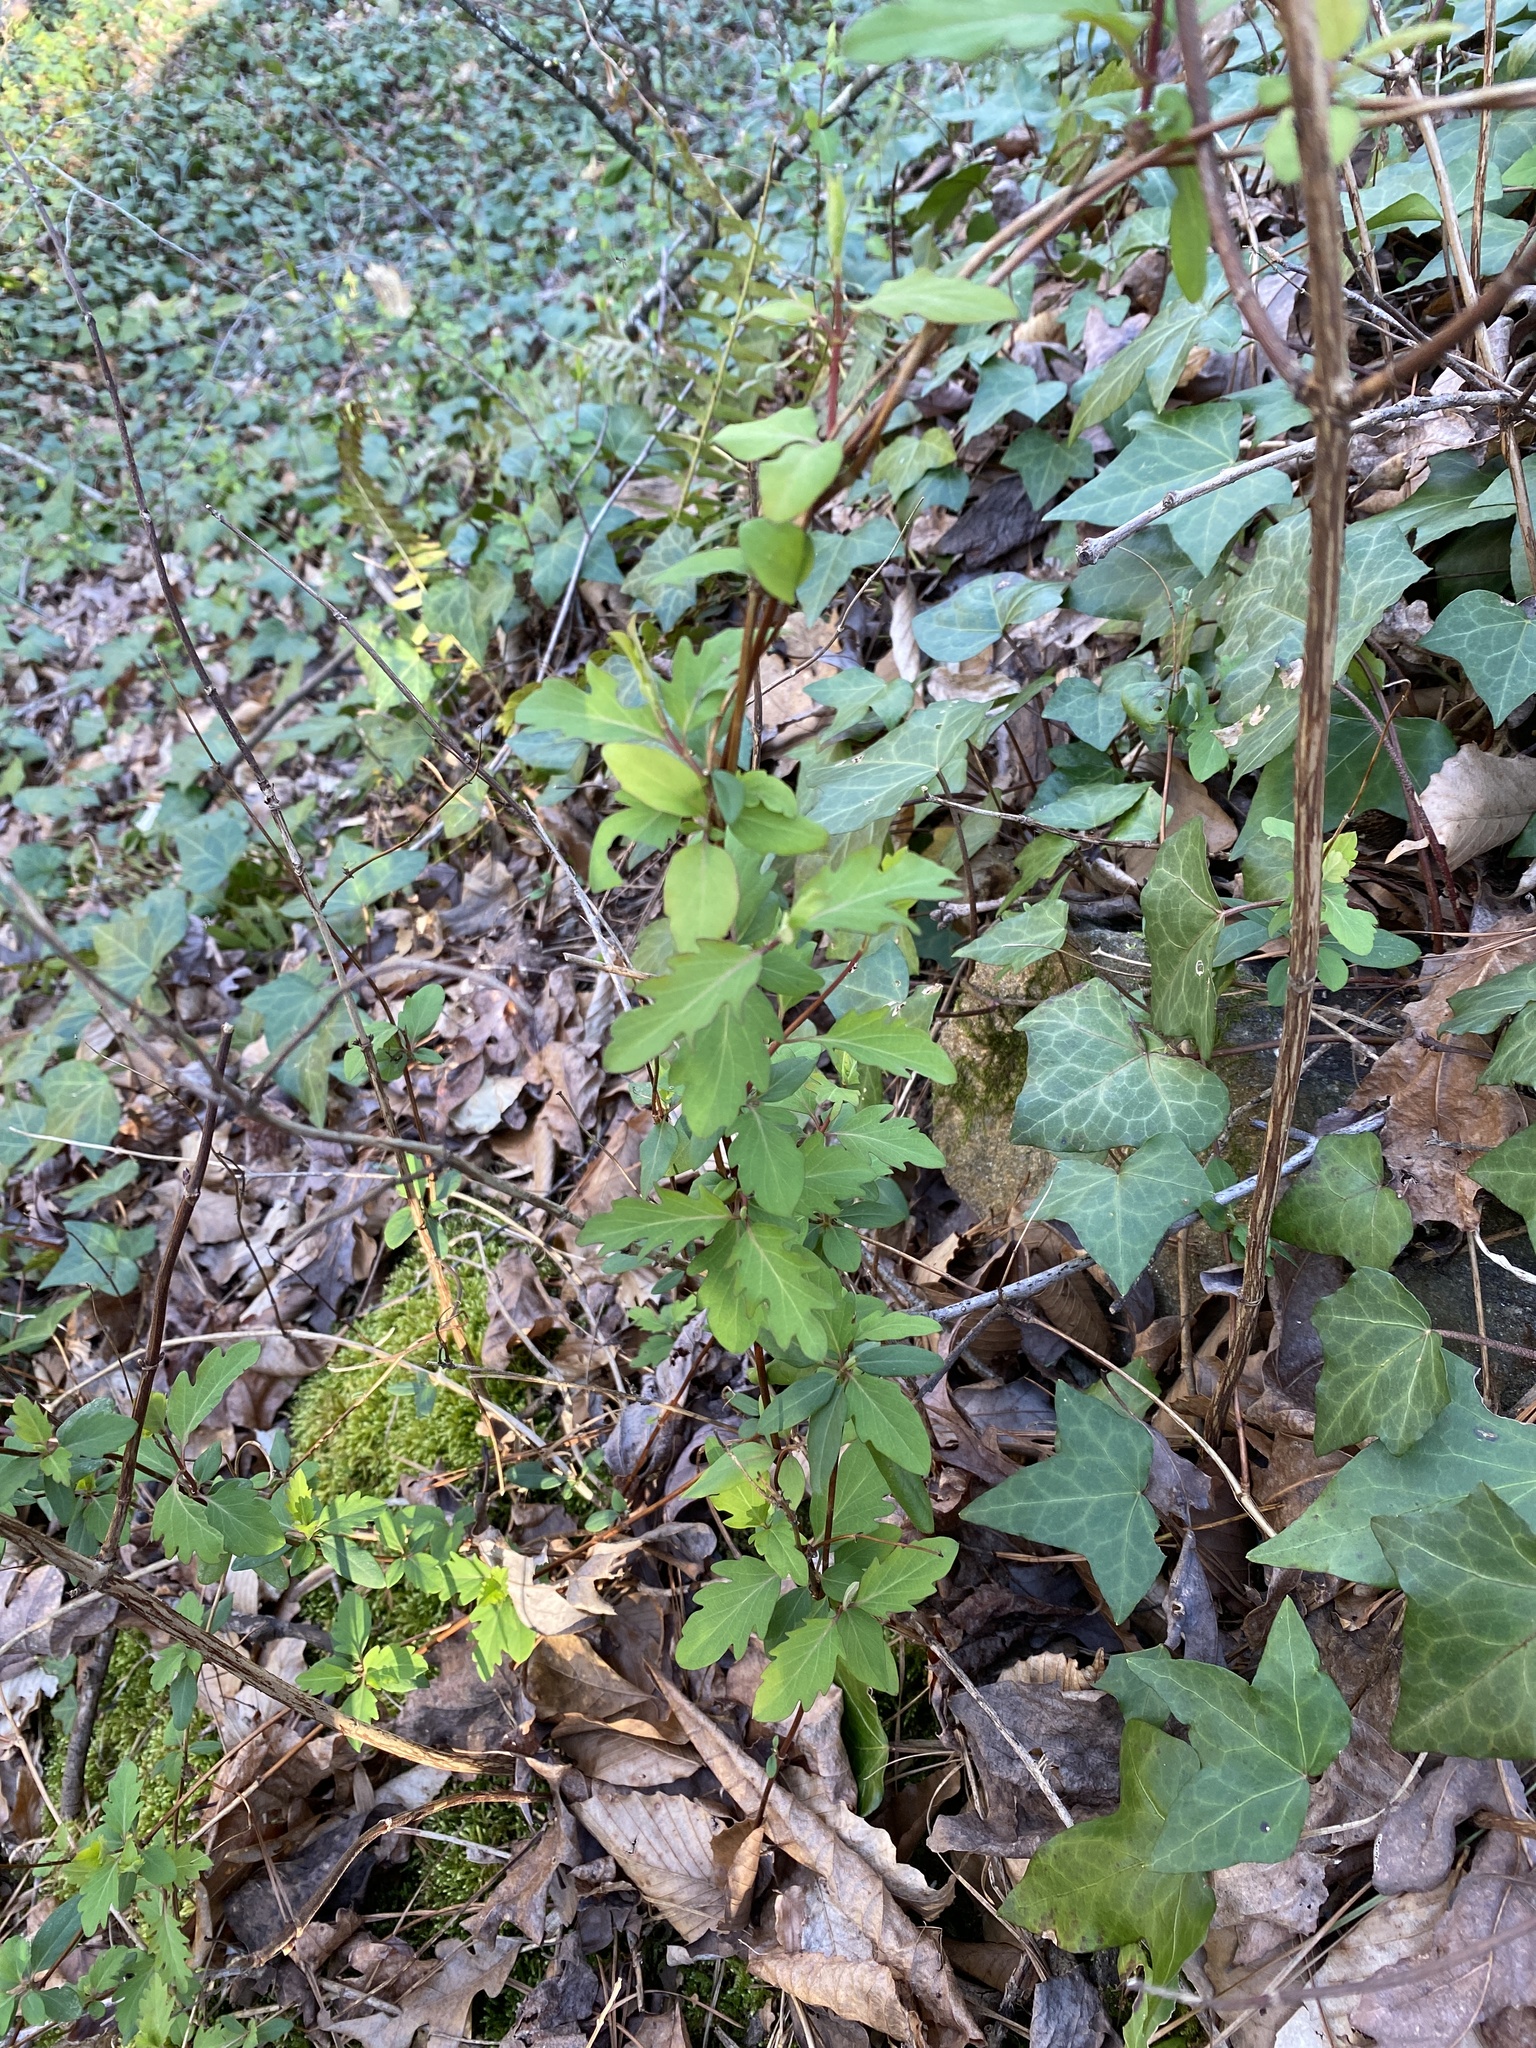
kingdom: Plantae
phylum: Tracheophyta
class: Magnoliopsida
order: Dipsacales
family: Caprifoliaceae
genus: Lonicera
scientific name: Lonicera japonica
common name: Japanese honeysuckle
